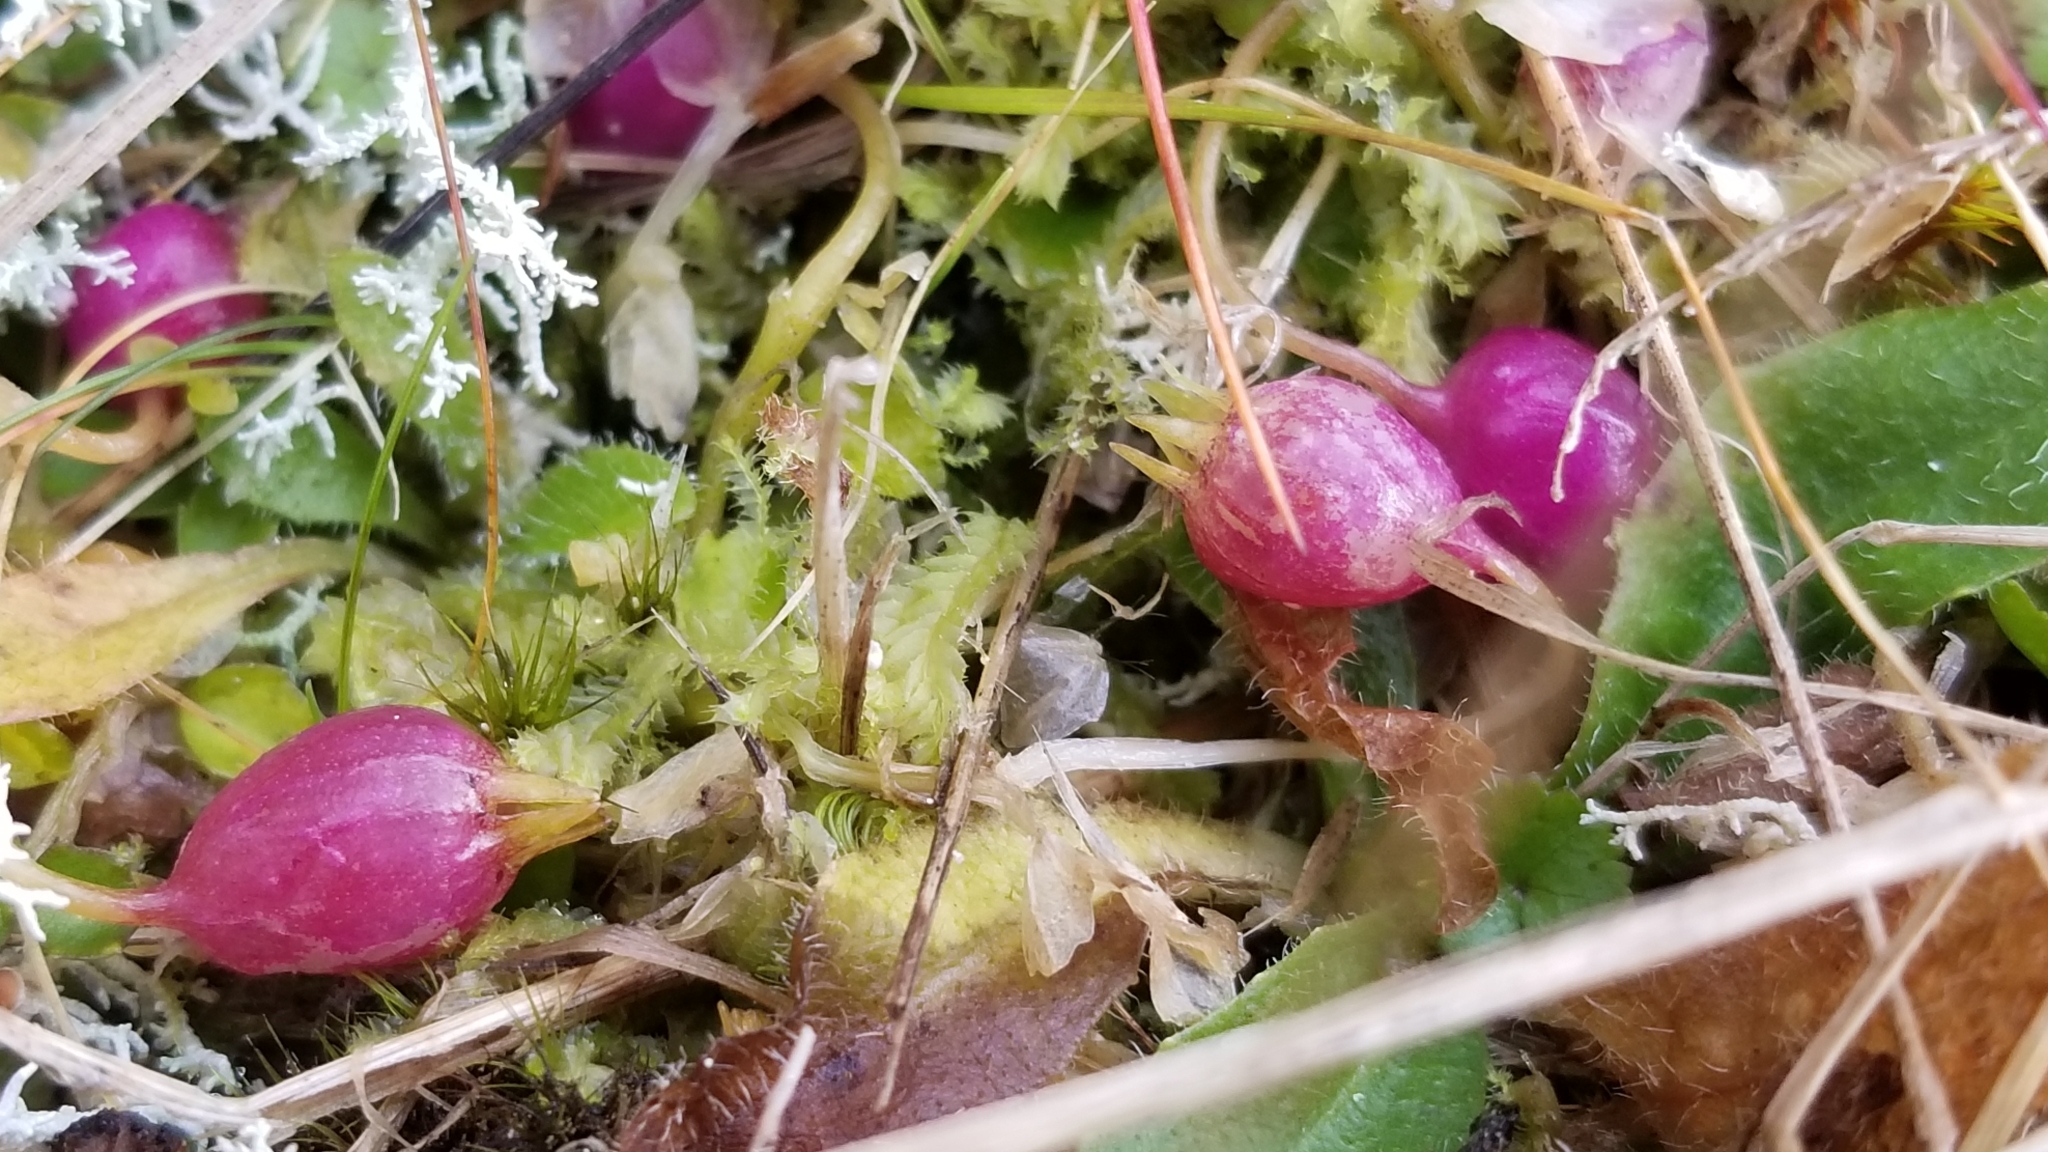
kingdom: Plantae
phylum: Tracheophyta
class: Magnoliopsida
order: Asterales
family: Campanulaceae
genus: Lobelia
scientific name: Lobelia angulata
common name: Lawn lobelia
